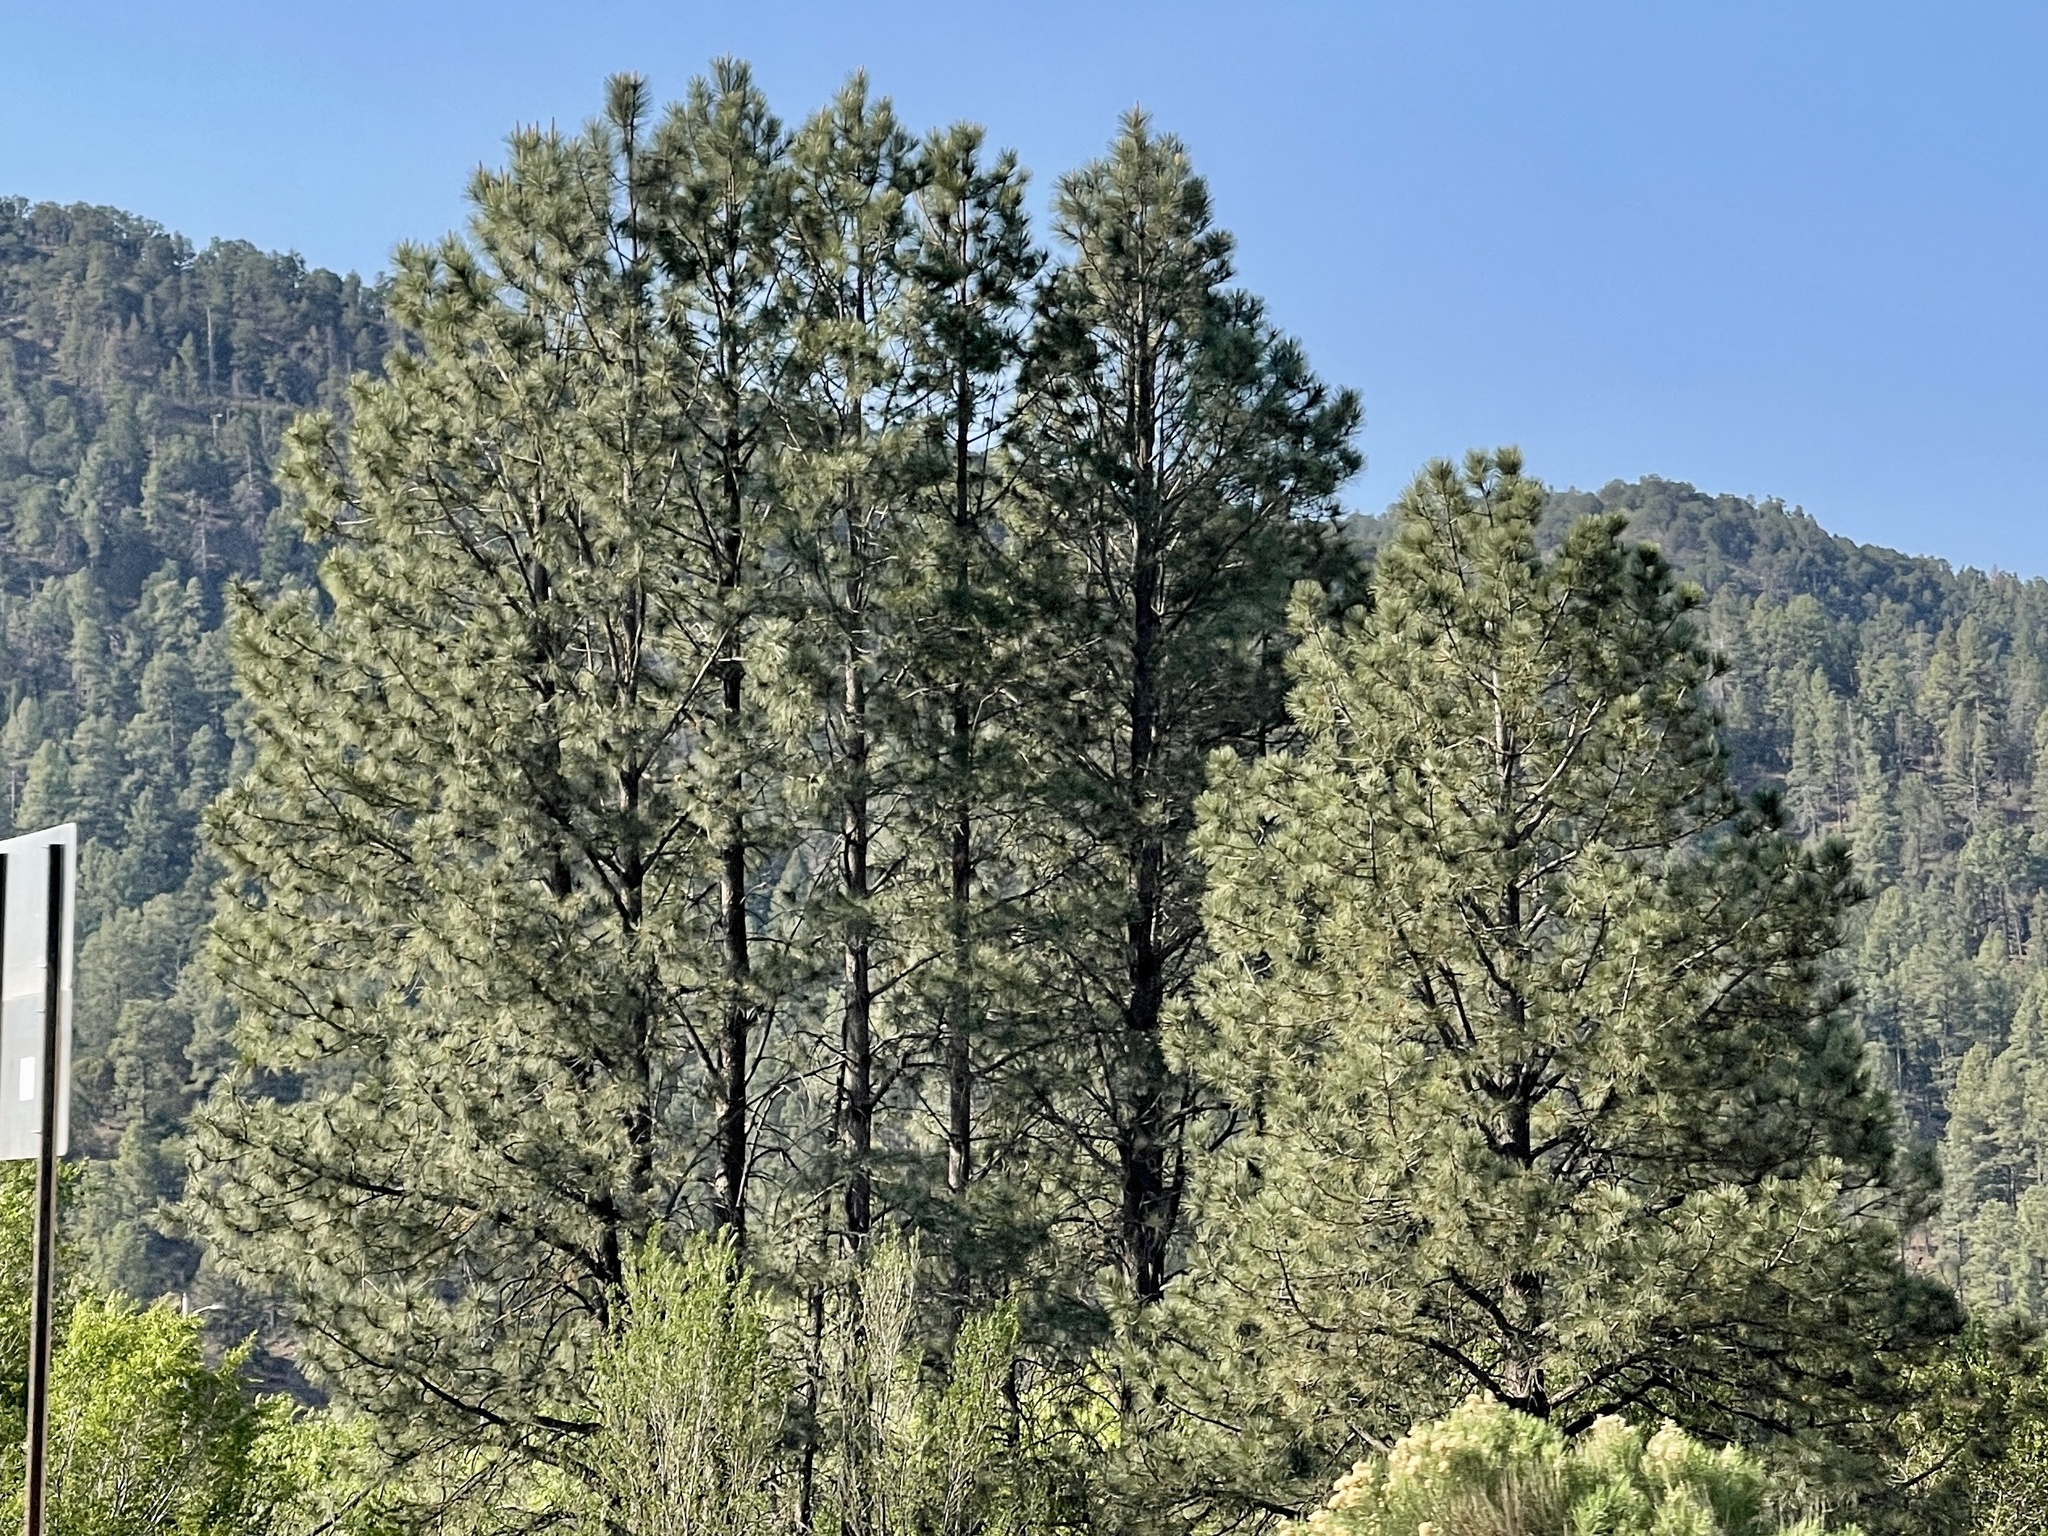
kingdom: Plantae
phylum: Tracheophyta
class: Pinopsida
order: Pinales
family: Pinaceae
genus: Pinus
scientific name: Pinus ponderosa
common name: Western yellow-pine
